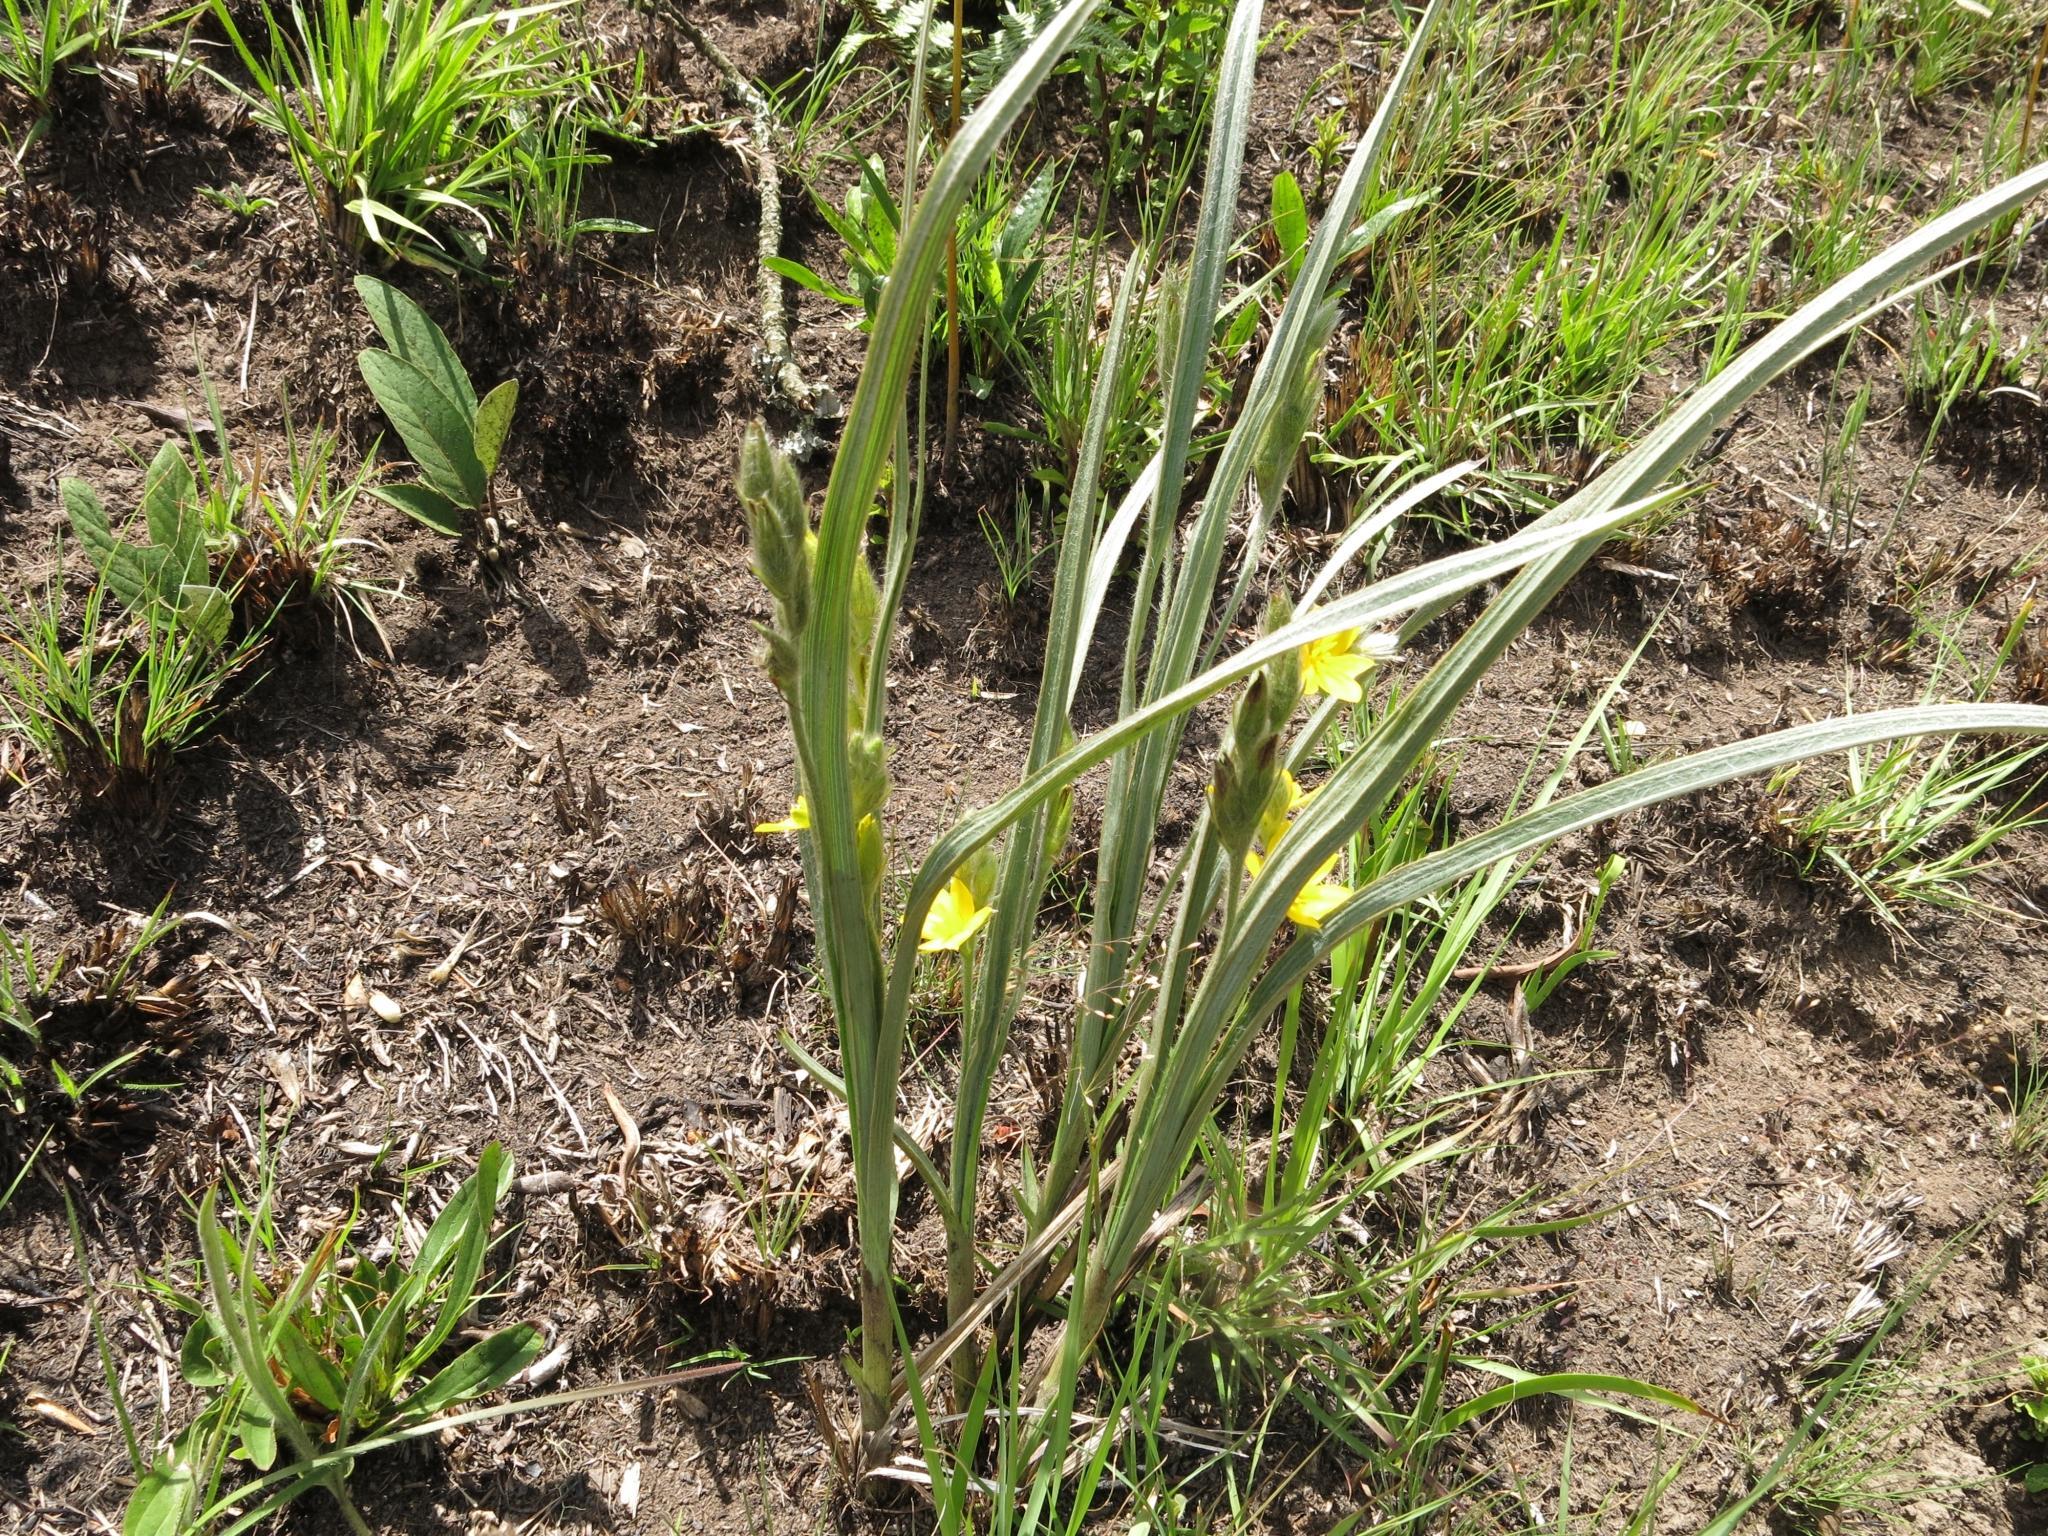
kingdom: Plantae
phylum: Tracheophyta
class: Liliopsida
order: Asparagales
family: Hypoxidaceae
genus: Hypoxis
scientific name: Hypoxis rigidula
